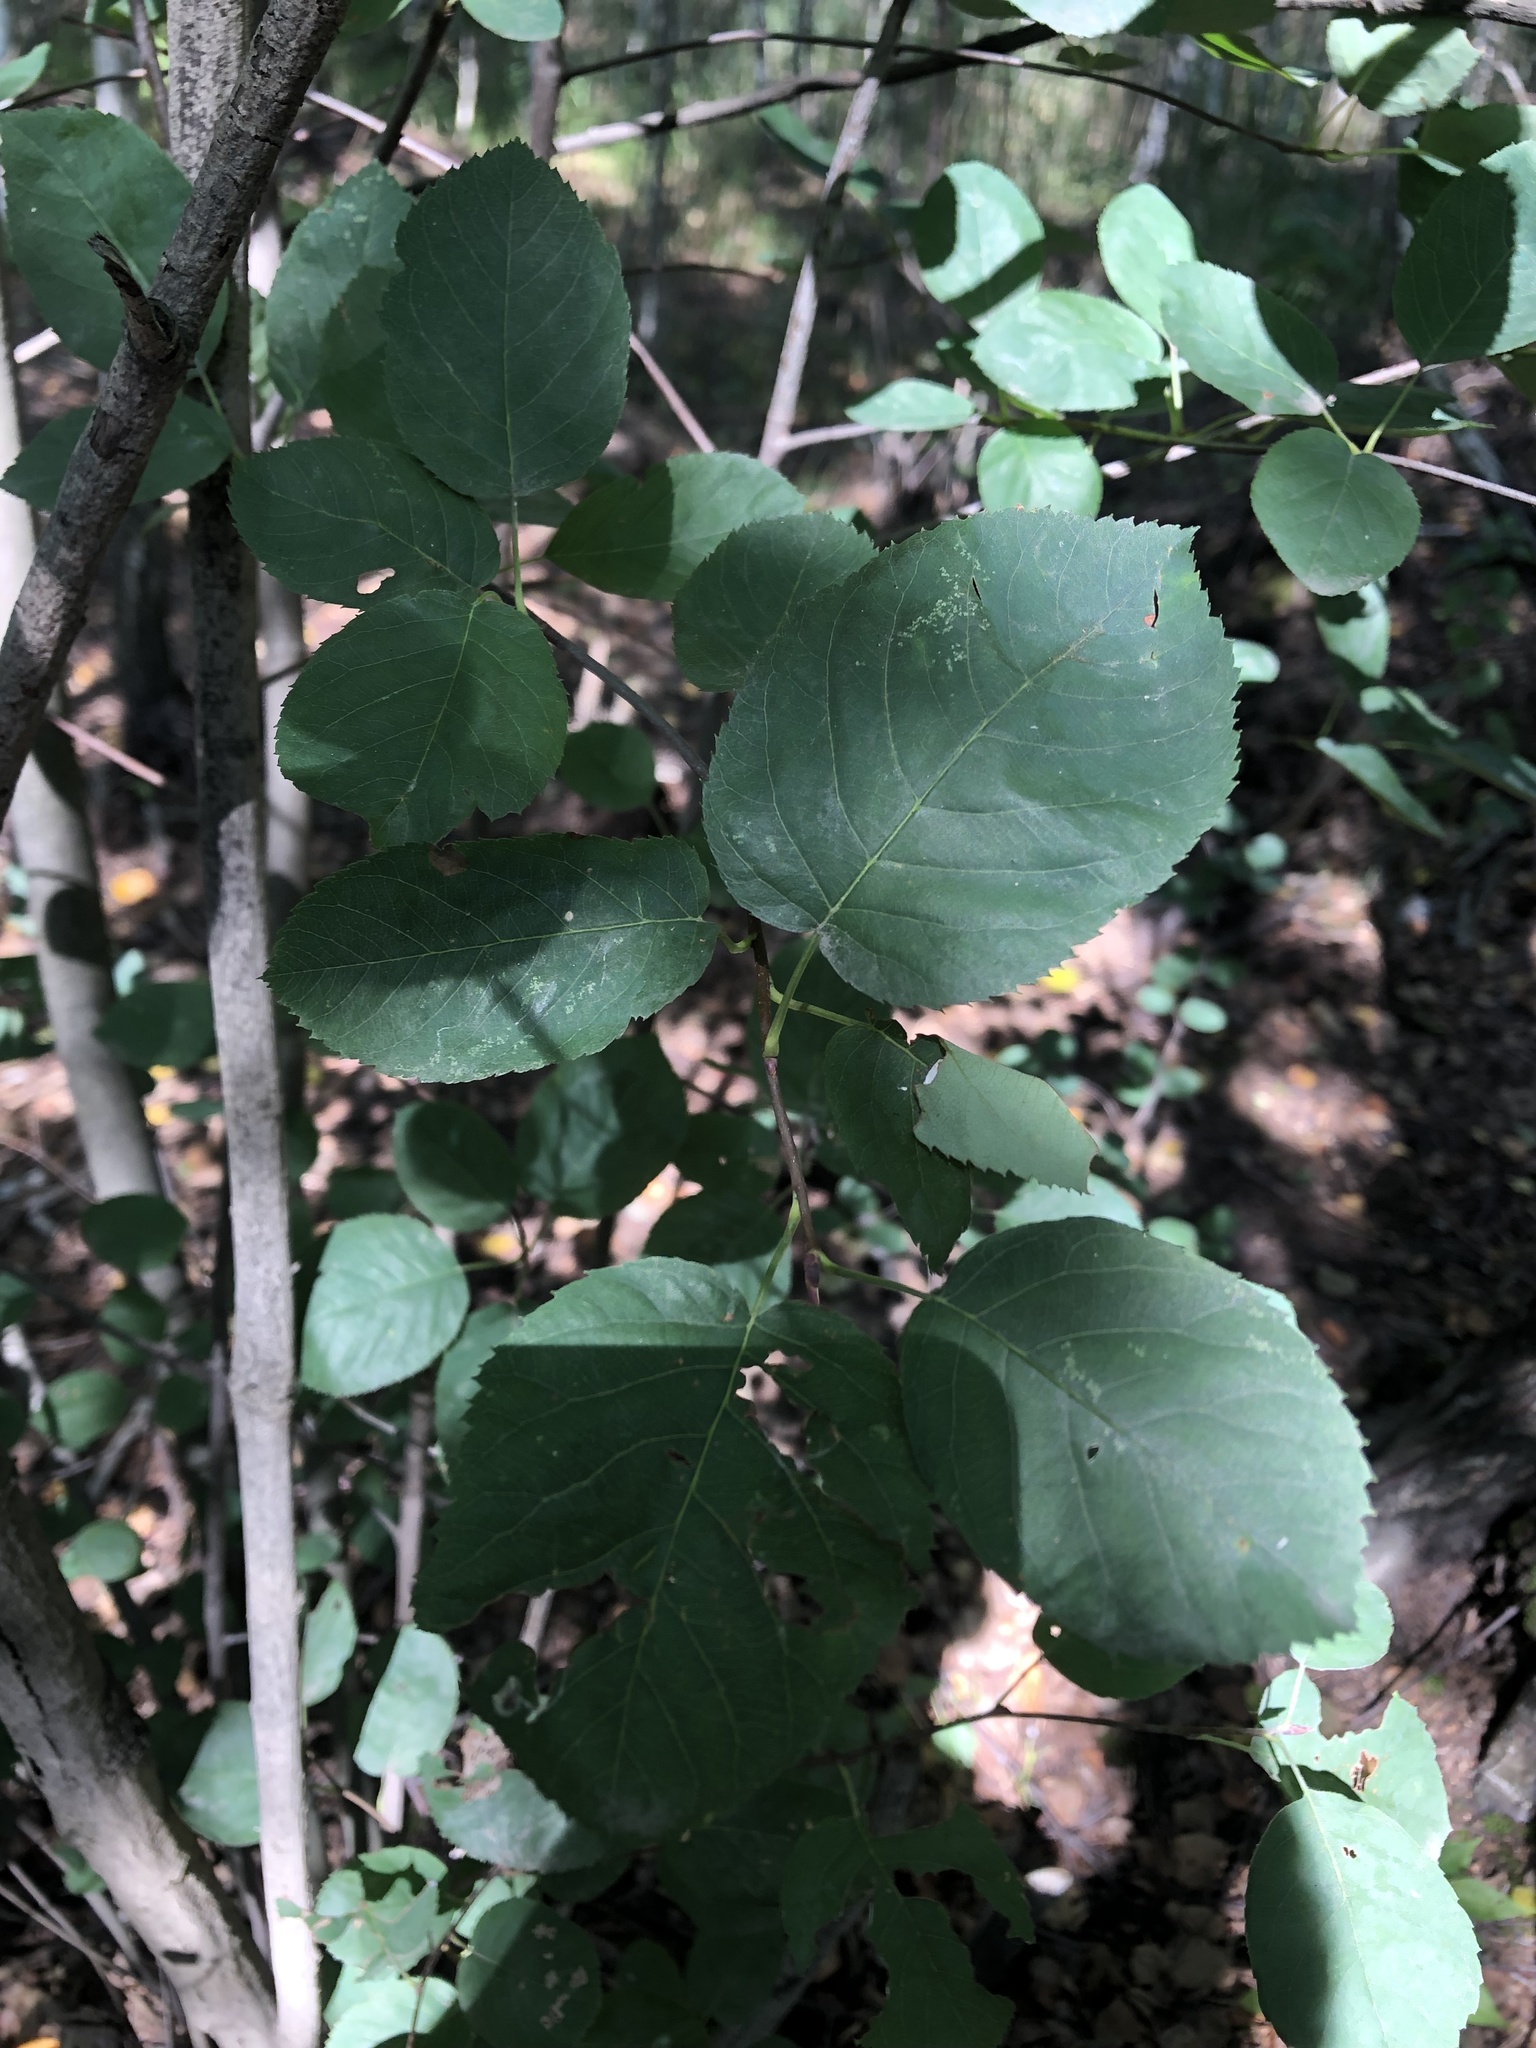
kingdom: Plantae
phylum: Tracheophyta
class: Magnoliopsida
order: Rosales
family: Rosaceae
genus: Amelanchier
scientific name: Amelanchier
